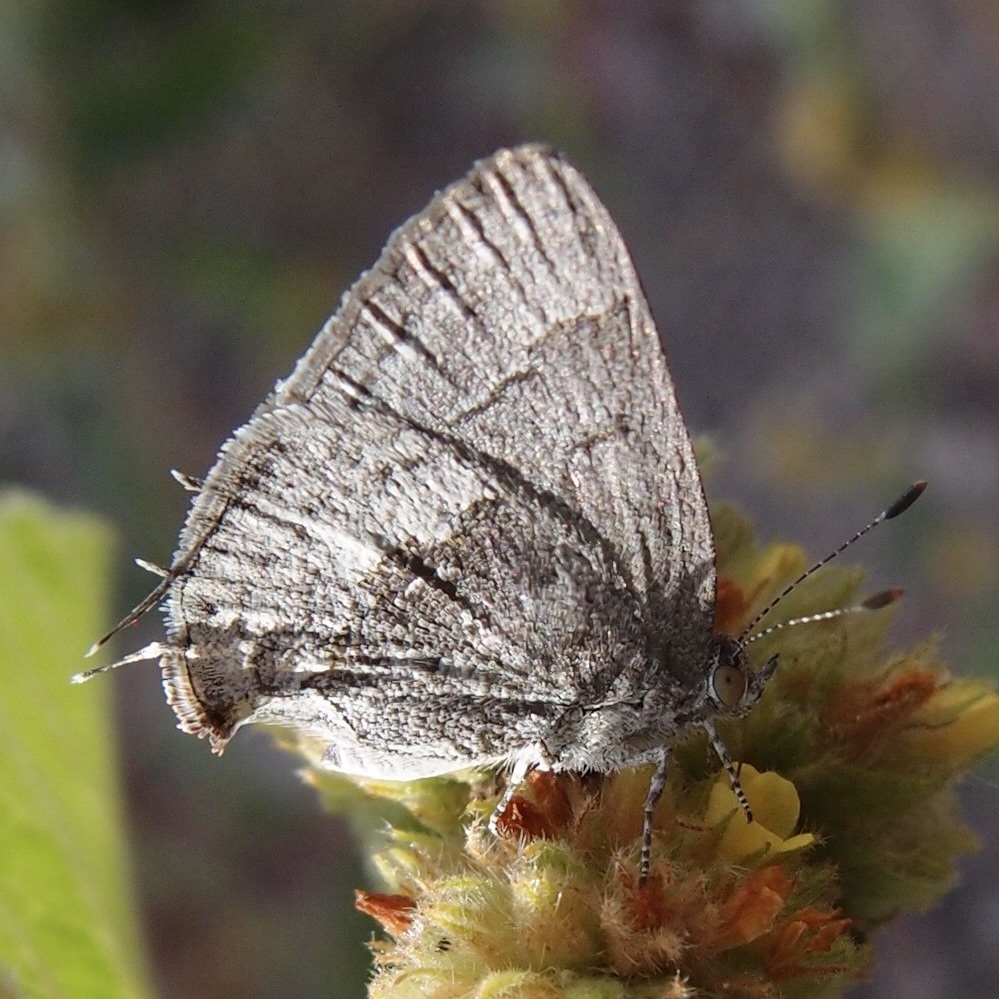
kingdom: Animalia
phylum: Arthropoda
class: Insecta
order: Lepidoptera
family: Lycaenidae
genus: Ministrymon
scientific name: Ministrymon leda
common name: Leda ministreak
